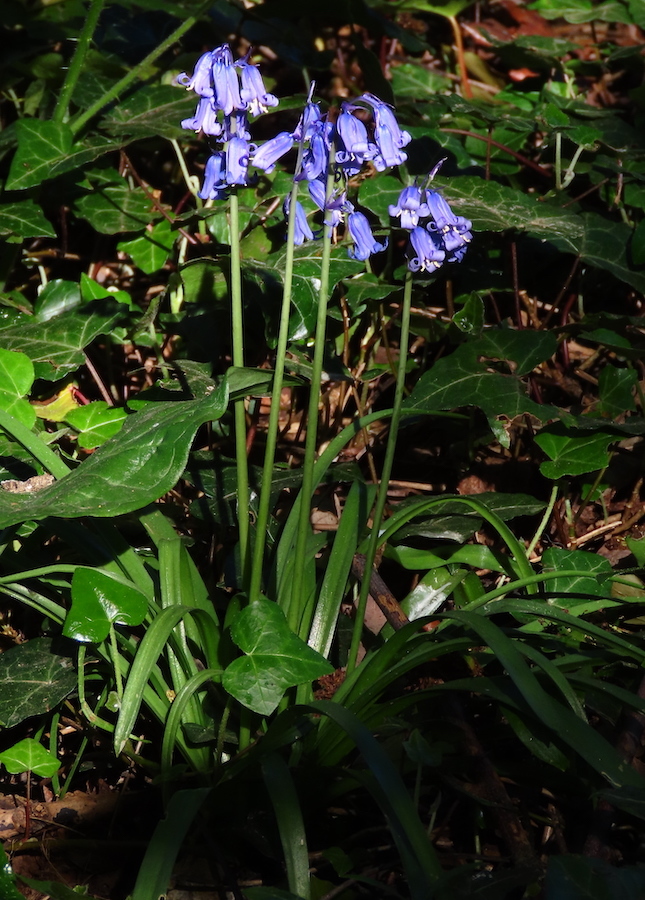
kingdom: Plantae
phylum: Tracheophyta
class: Liliopsida
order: Asparagales
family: Asparagaceae
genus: Hyacinthoides
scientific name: Hyacinthoides non-scripta
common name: Bluebell
